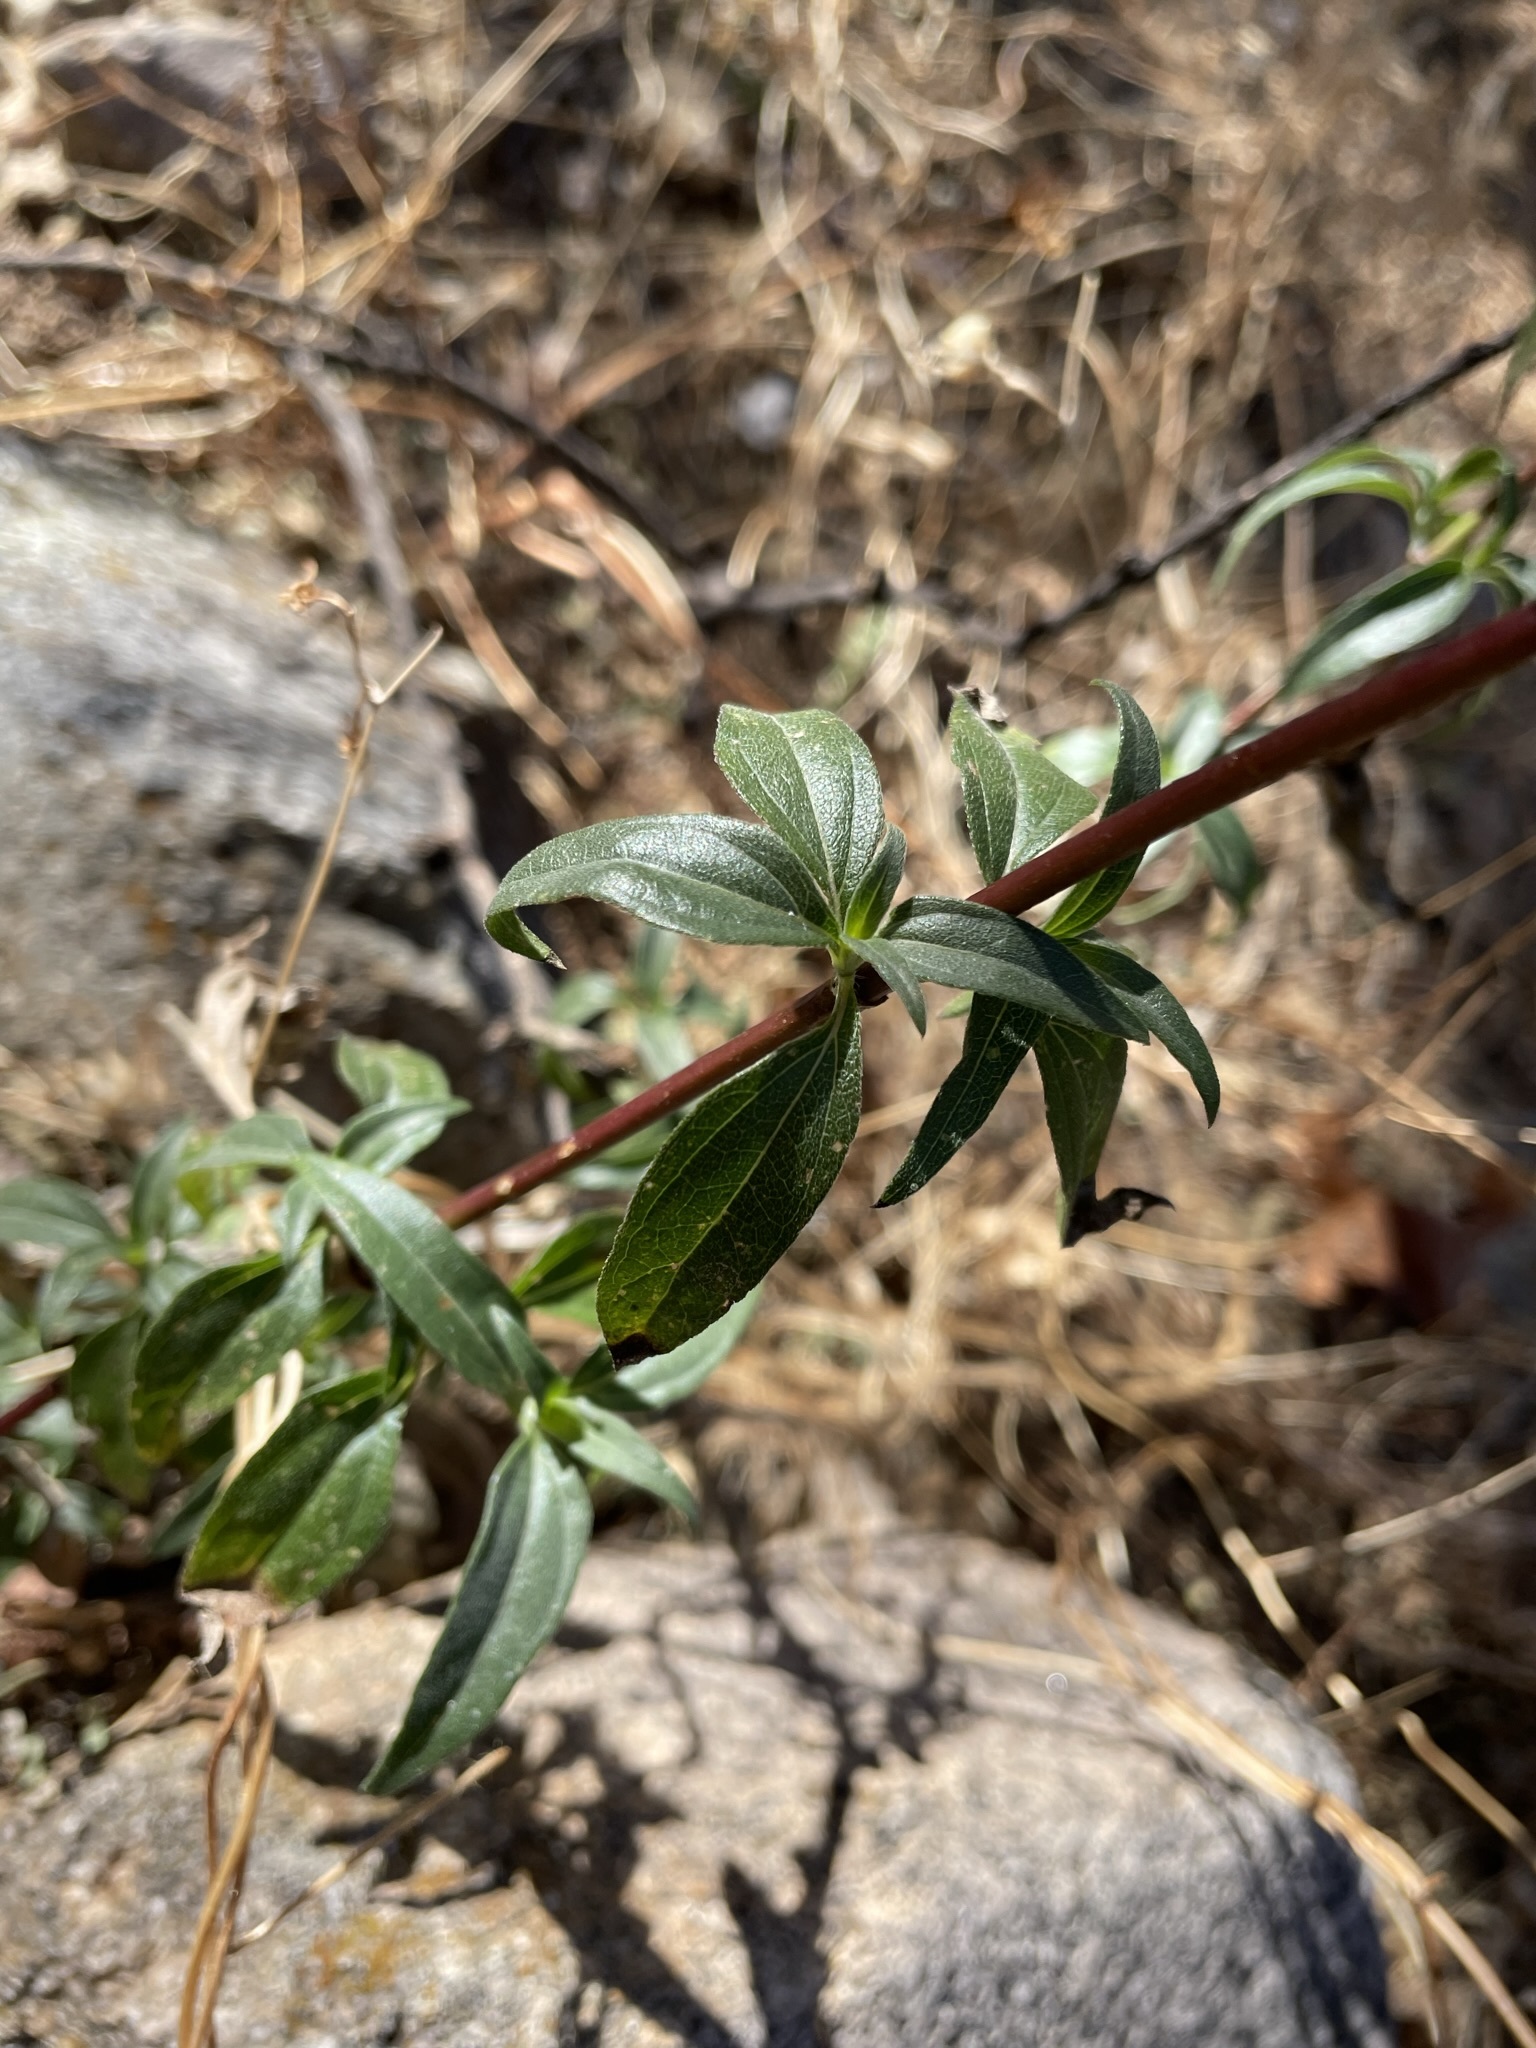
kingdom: Plantae
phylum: Tracheophyta
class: Magnoliopsida
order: Asterales
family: Asteraceae
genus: Viguiera
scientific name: Viguiera dentata
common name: Toothleaf
